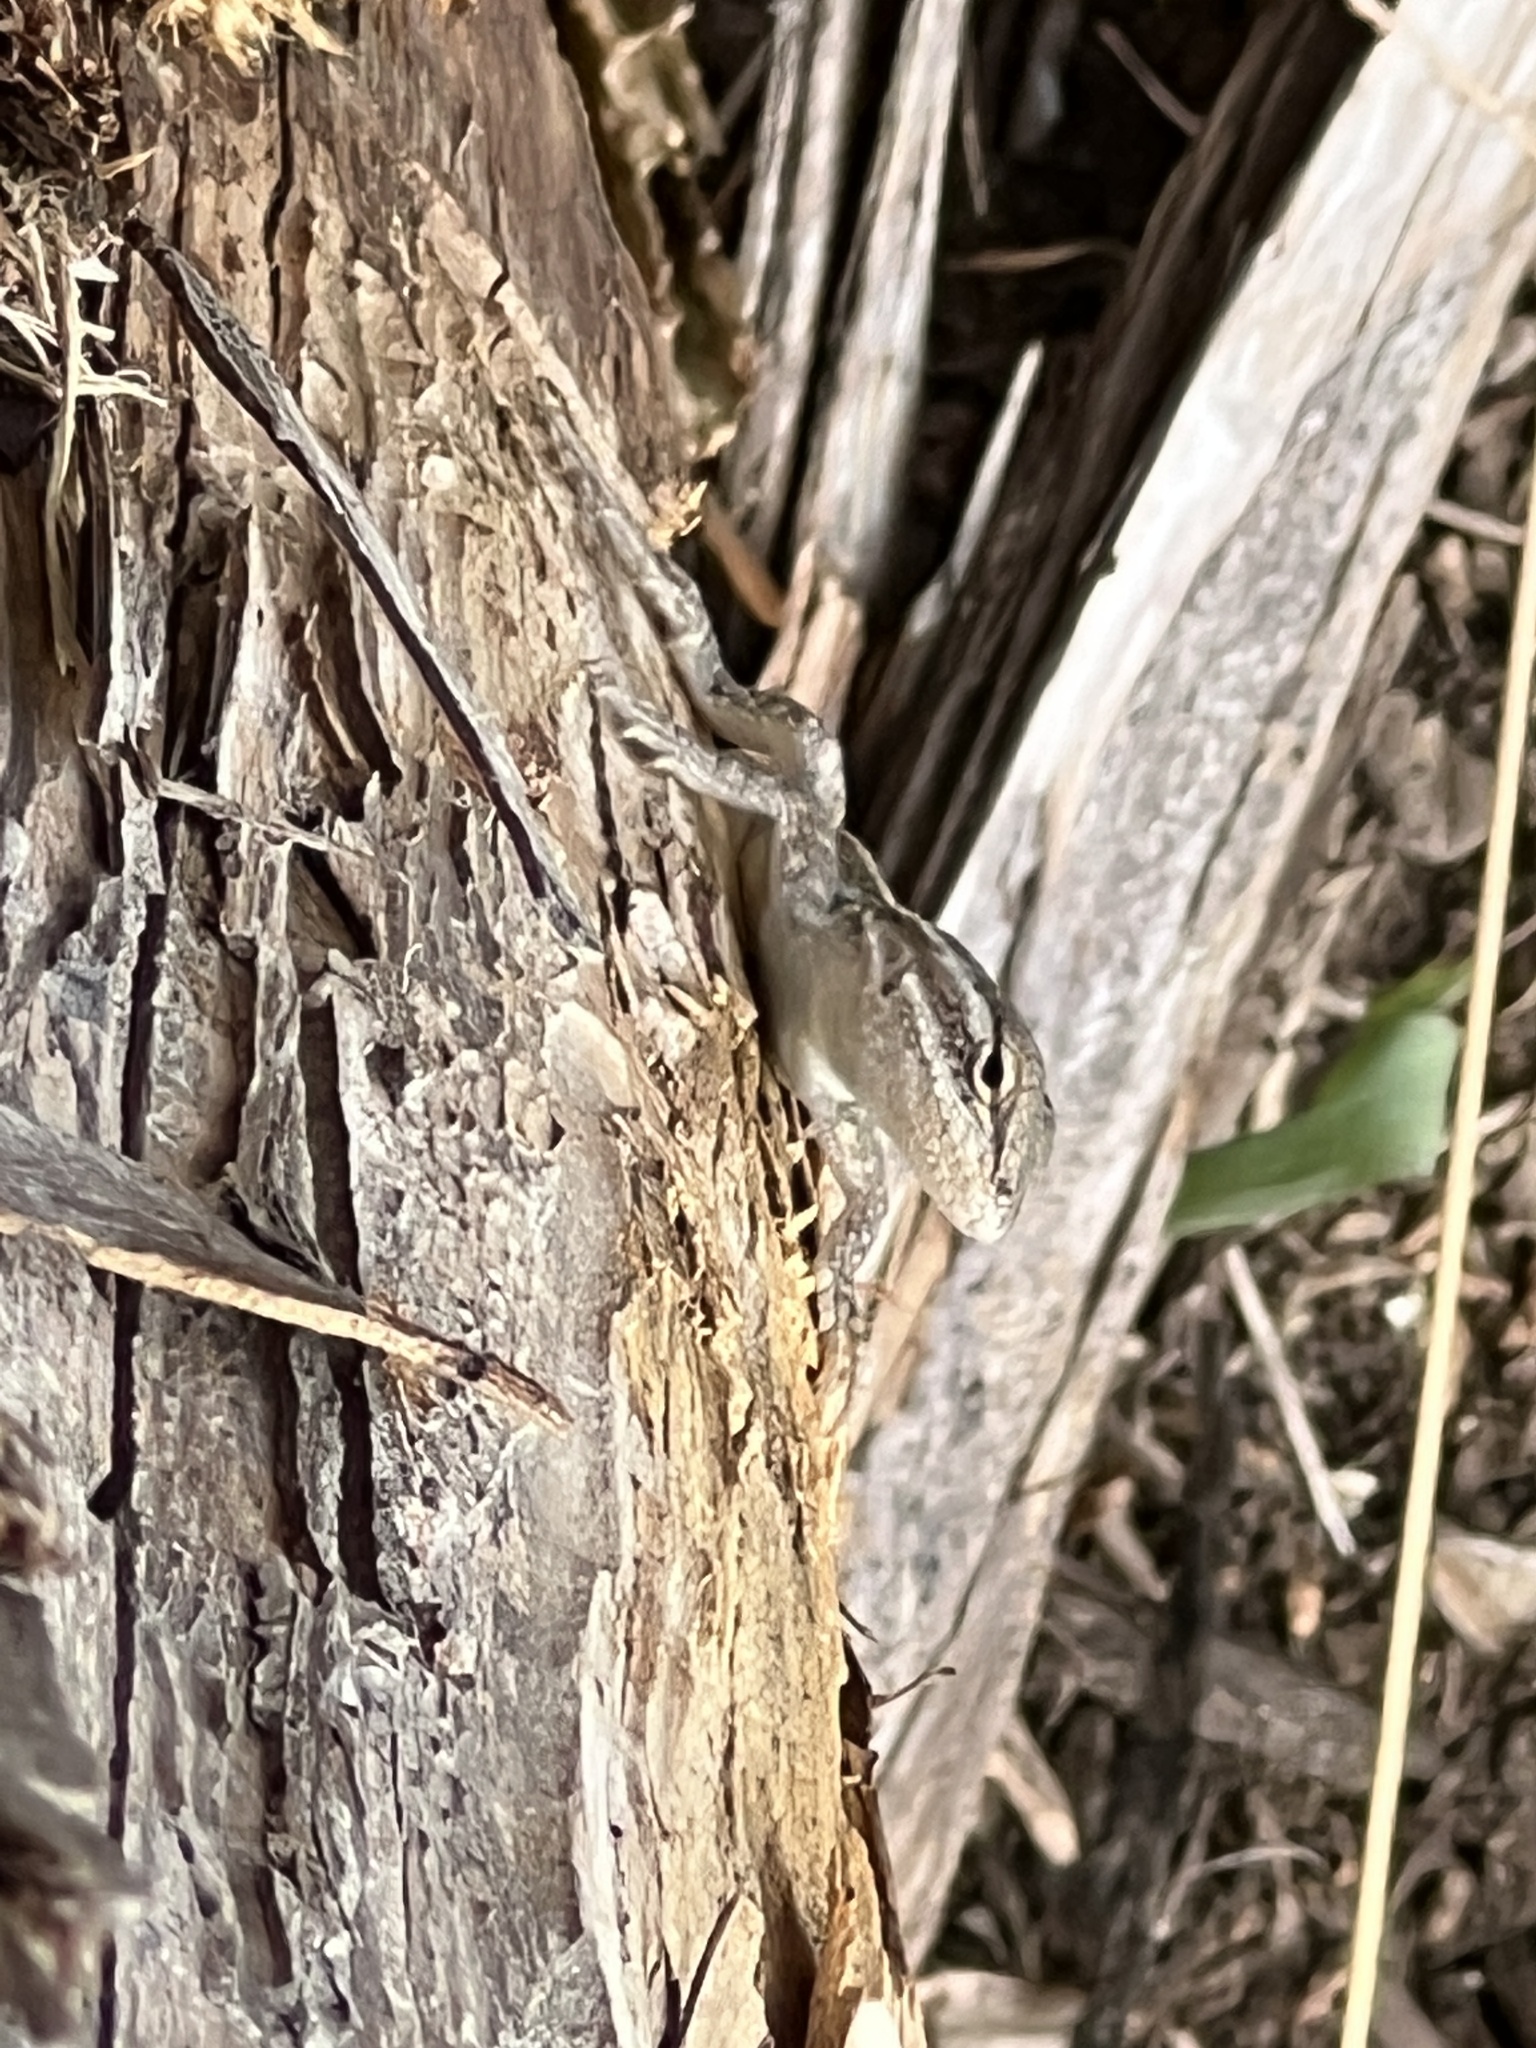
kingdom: Animalia
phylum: Chordata
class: Squamata
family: Phrynosomatidae
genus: Sceloporus
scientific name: Sceloporus variabilis
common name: Rosebelly lizard
